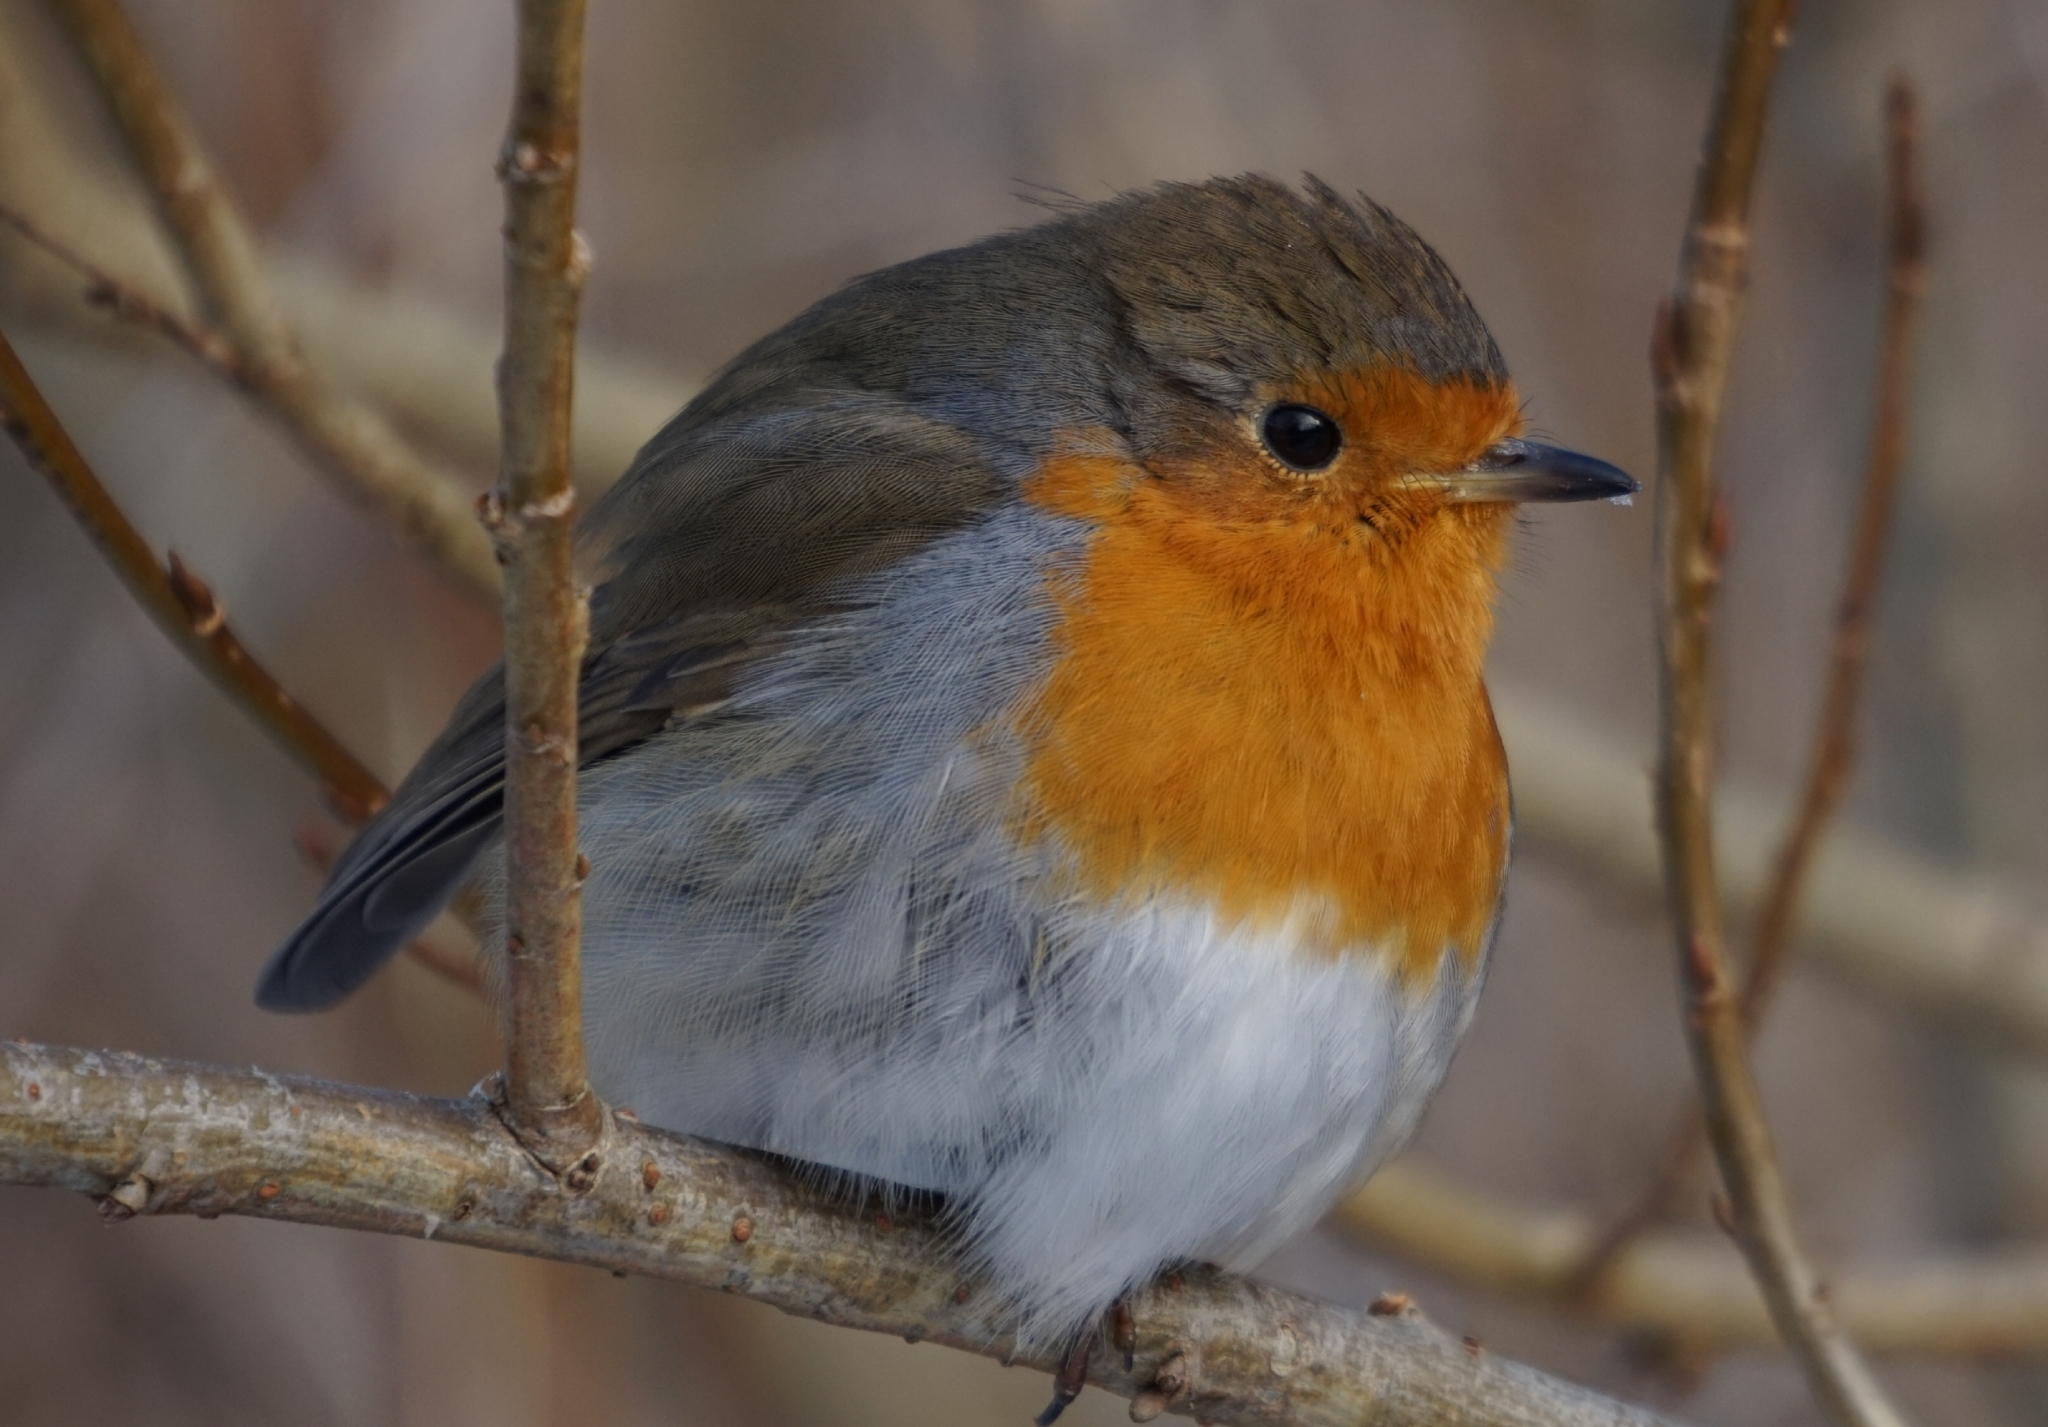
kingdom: Animalia
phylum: Chordata
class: Aves
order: Passeriformes
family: Muscicapidae
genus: Erithacus
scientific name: Erithacus rubecula
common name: European robin
